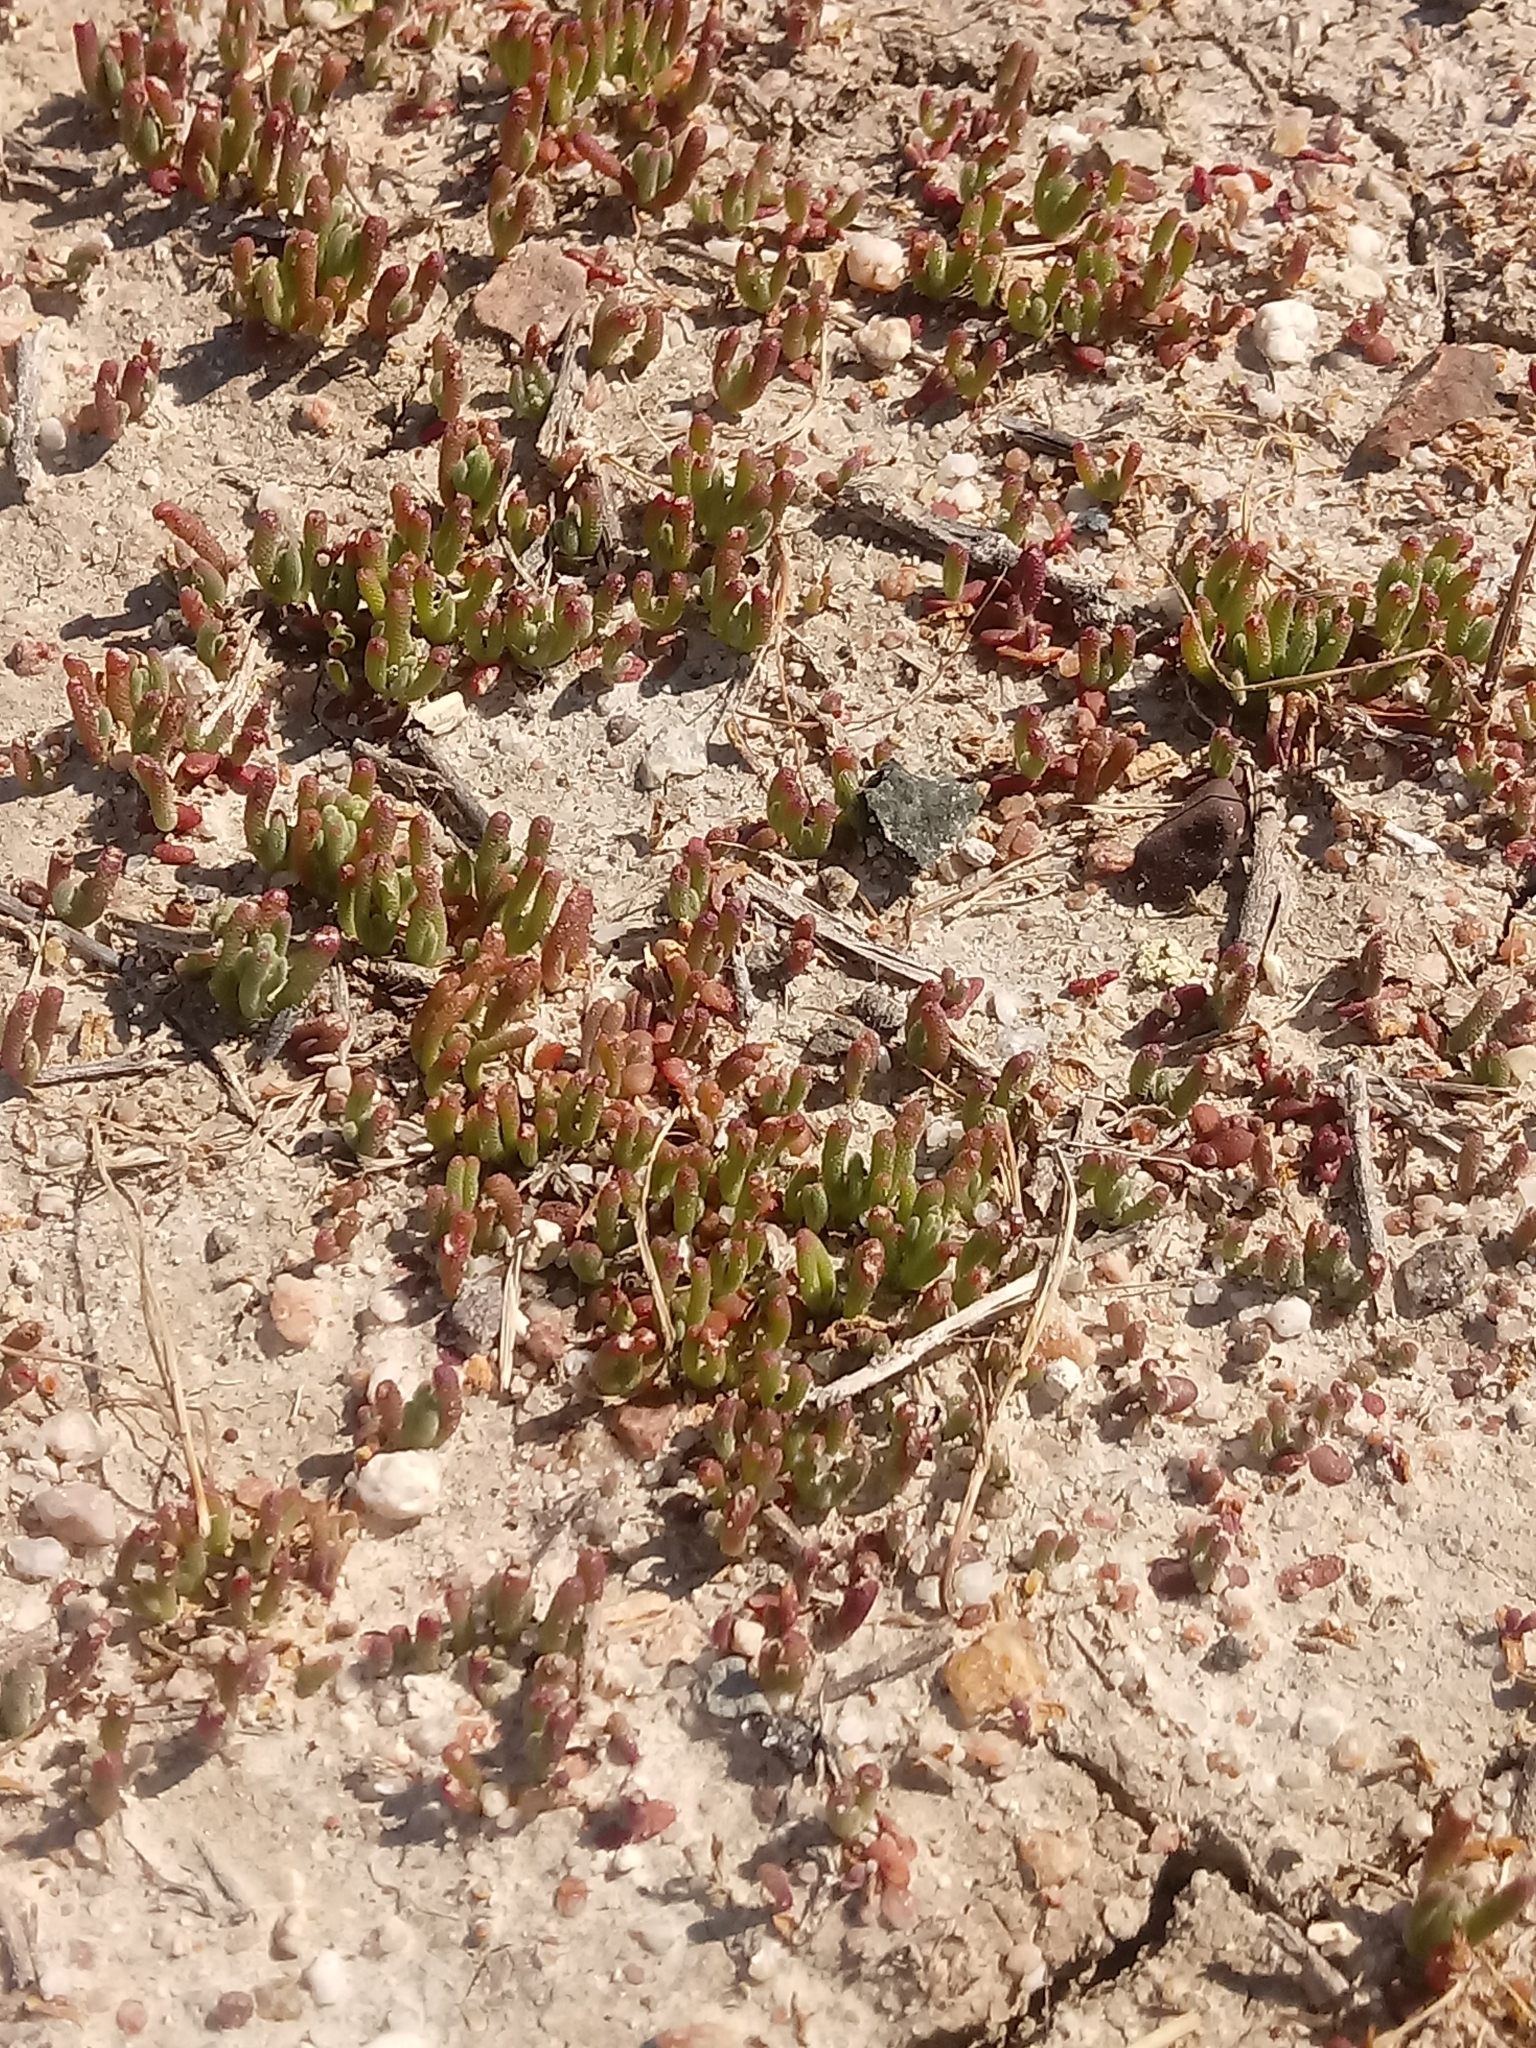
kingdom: Plantae
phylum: Tracheophyta
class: Magnoliopsida
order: Caryophyllales
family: Aizoaceae
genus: Mesembryanthemum
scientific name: Mesembryanthemum nodiflorum
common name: Slenderleaf iceplant
